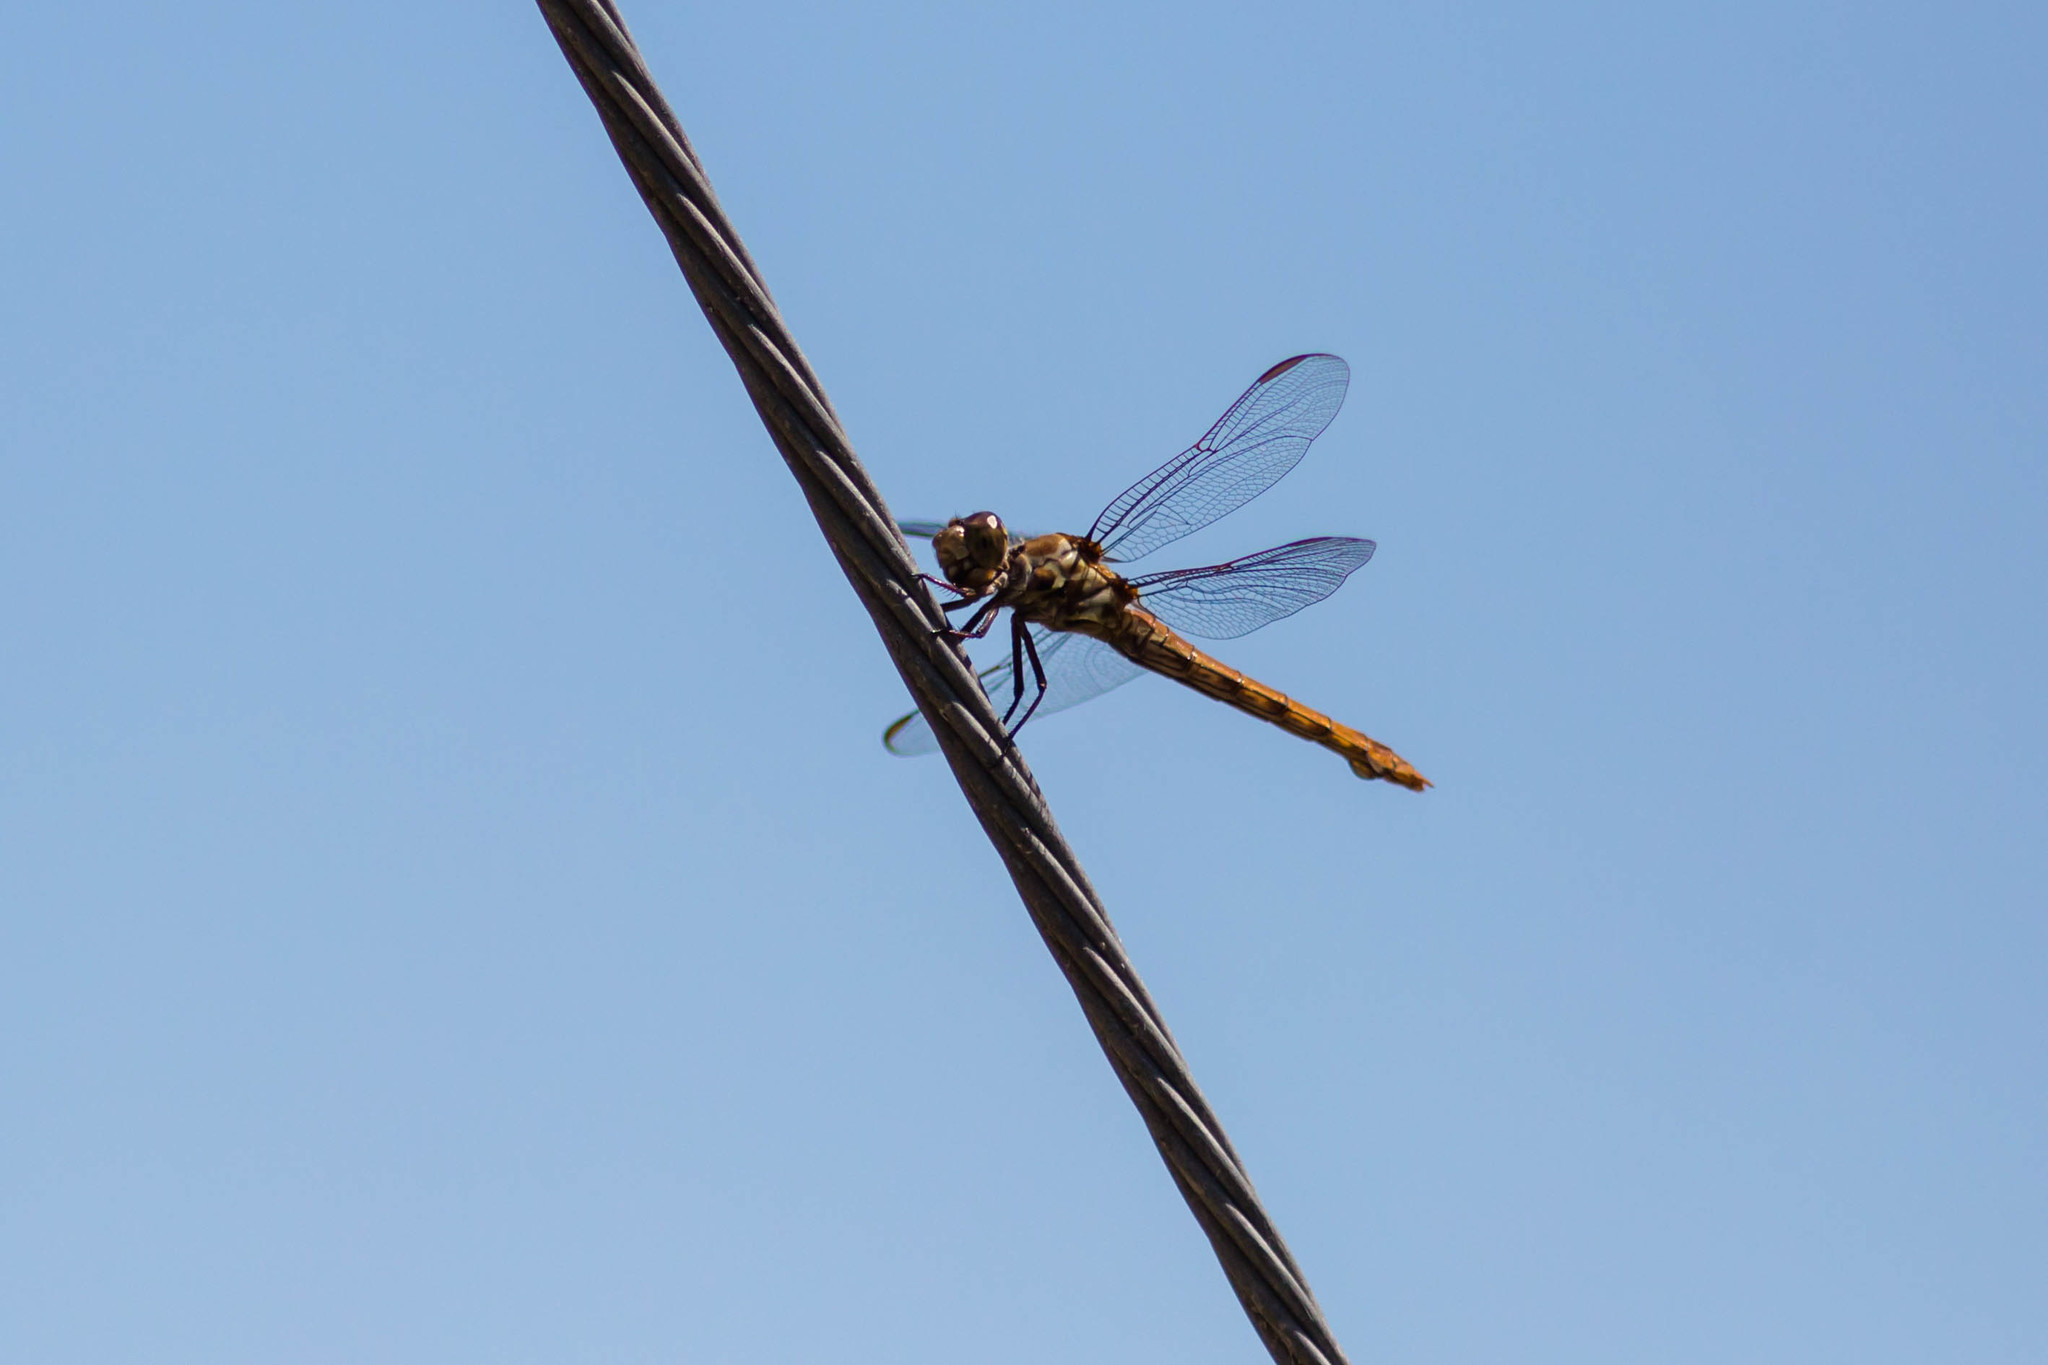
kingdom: Animalia
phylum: Arthropoda
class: Insecta
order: Odonata
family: Libellulidae
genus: Orthemis
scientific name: Orthemis ferruginea
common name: Roseate skimmer
